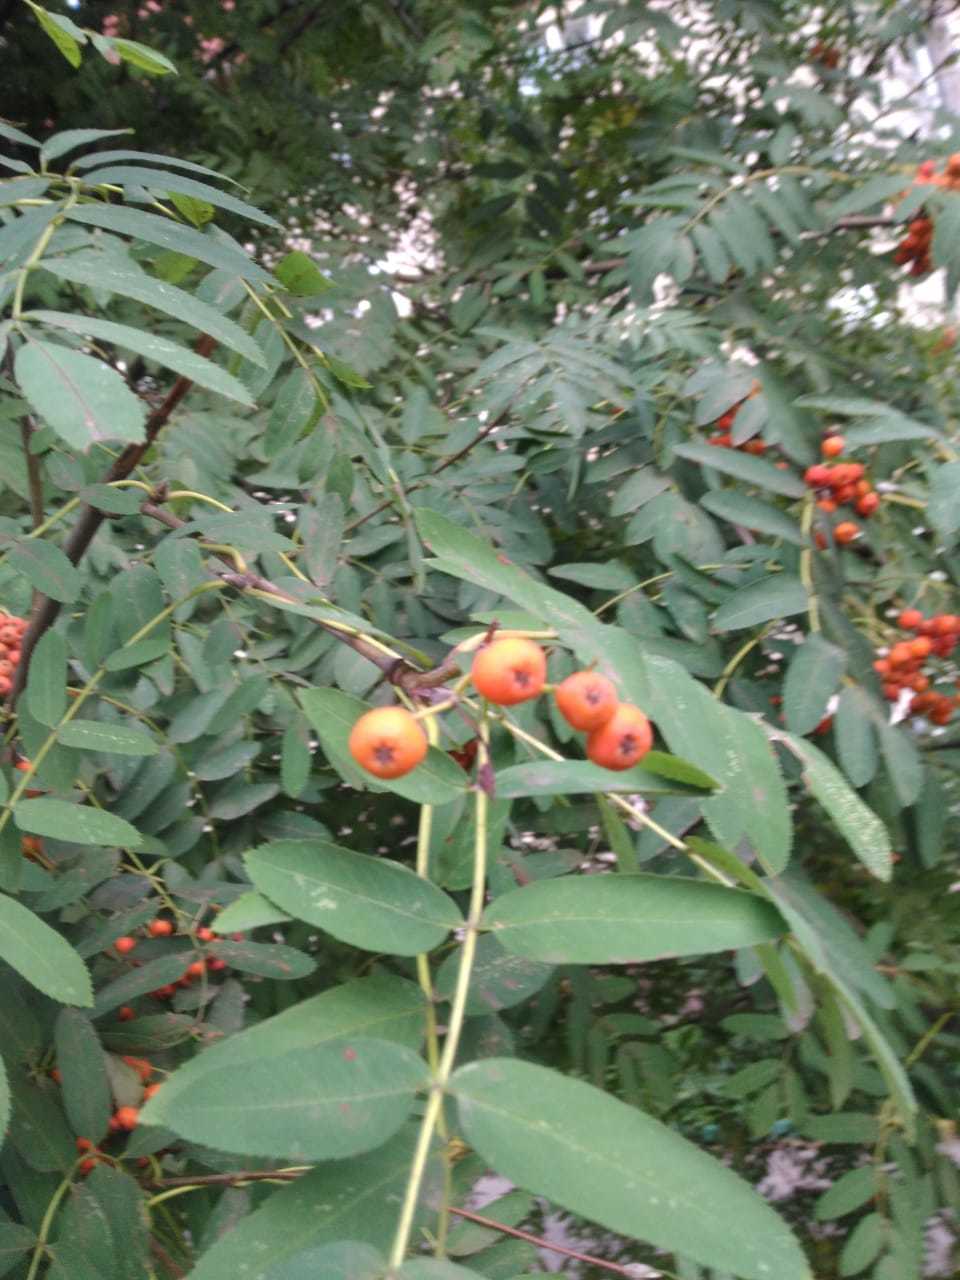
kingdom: Plantae
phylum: Tracheophyta
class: Magnoliopsida
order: Rosales
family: Rosaceae
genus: Sorbus
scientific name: Sorbus aucuparia
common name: Rowan
